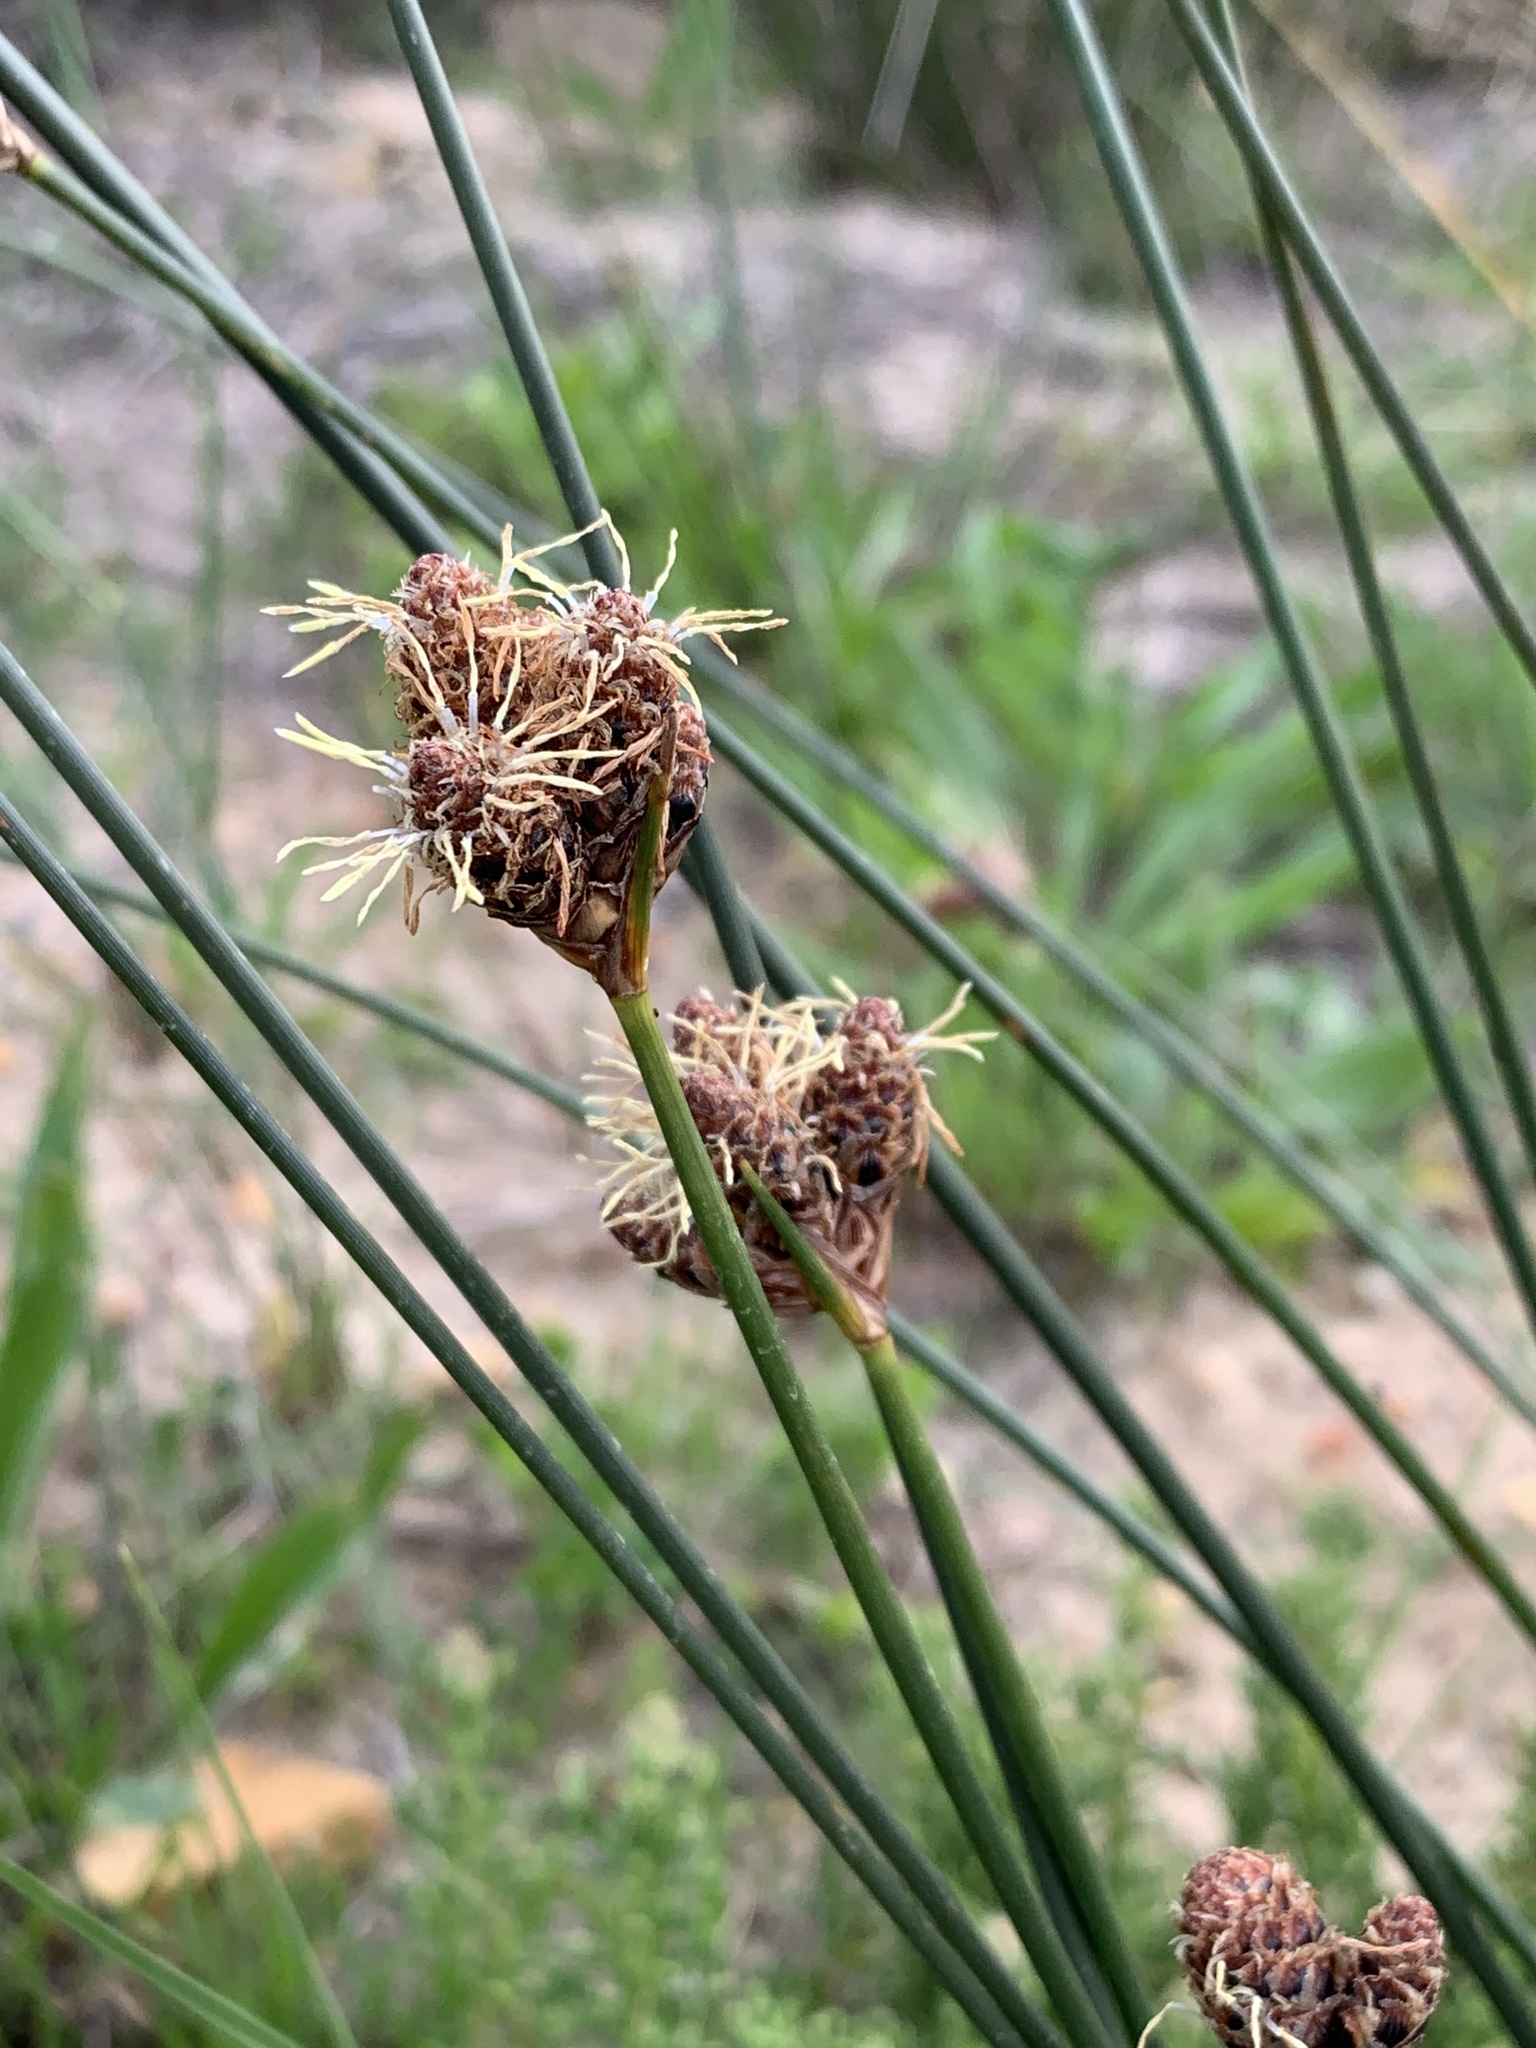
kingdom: Plantae
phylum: Tracheophyta
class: Liliopsida
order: Poales
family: Cyperaceae
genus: Hellmuthia
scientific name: Hellmuthia membranacea
